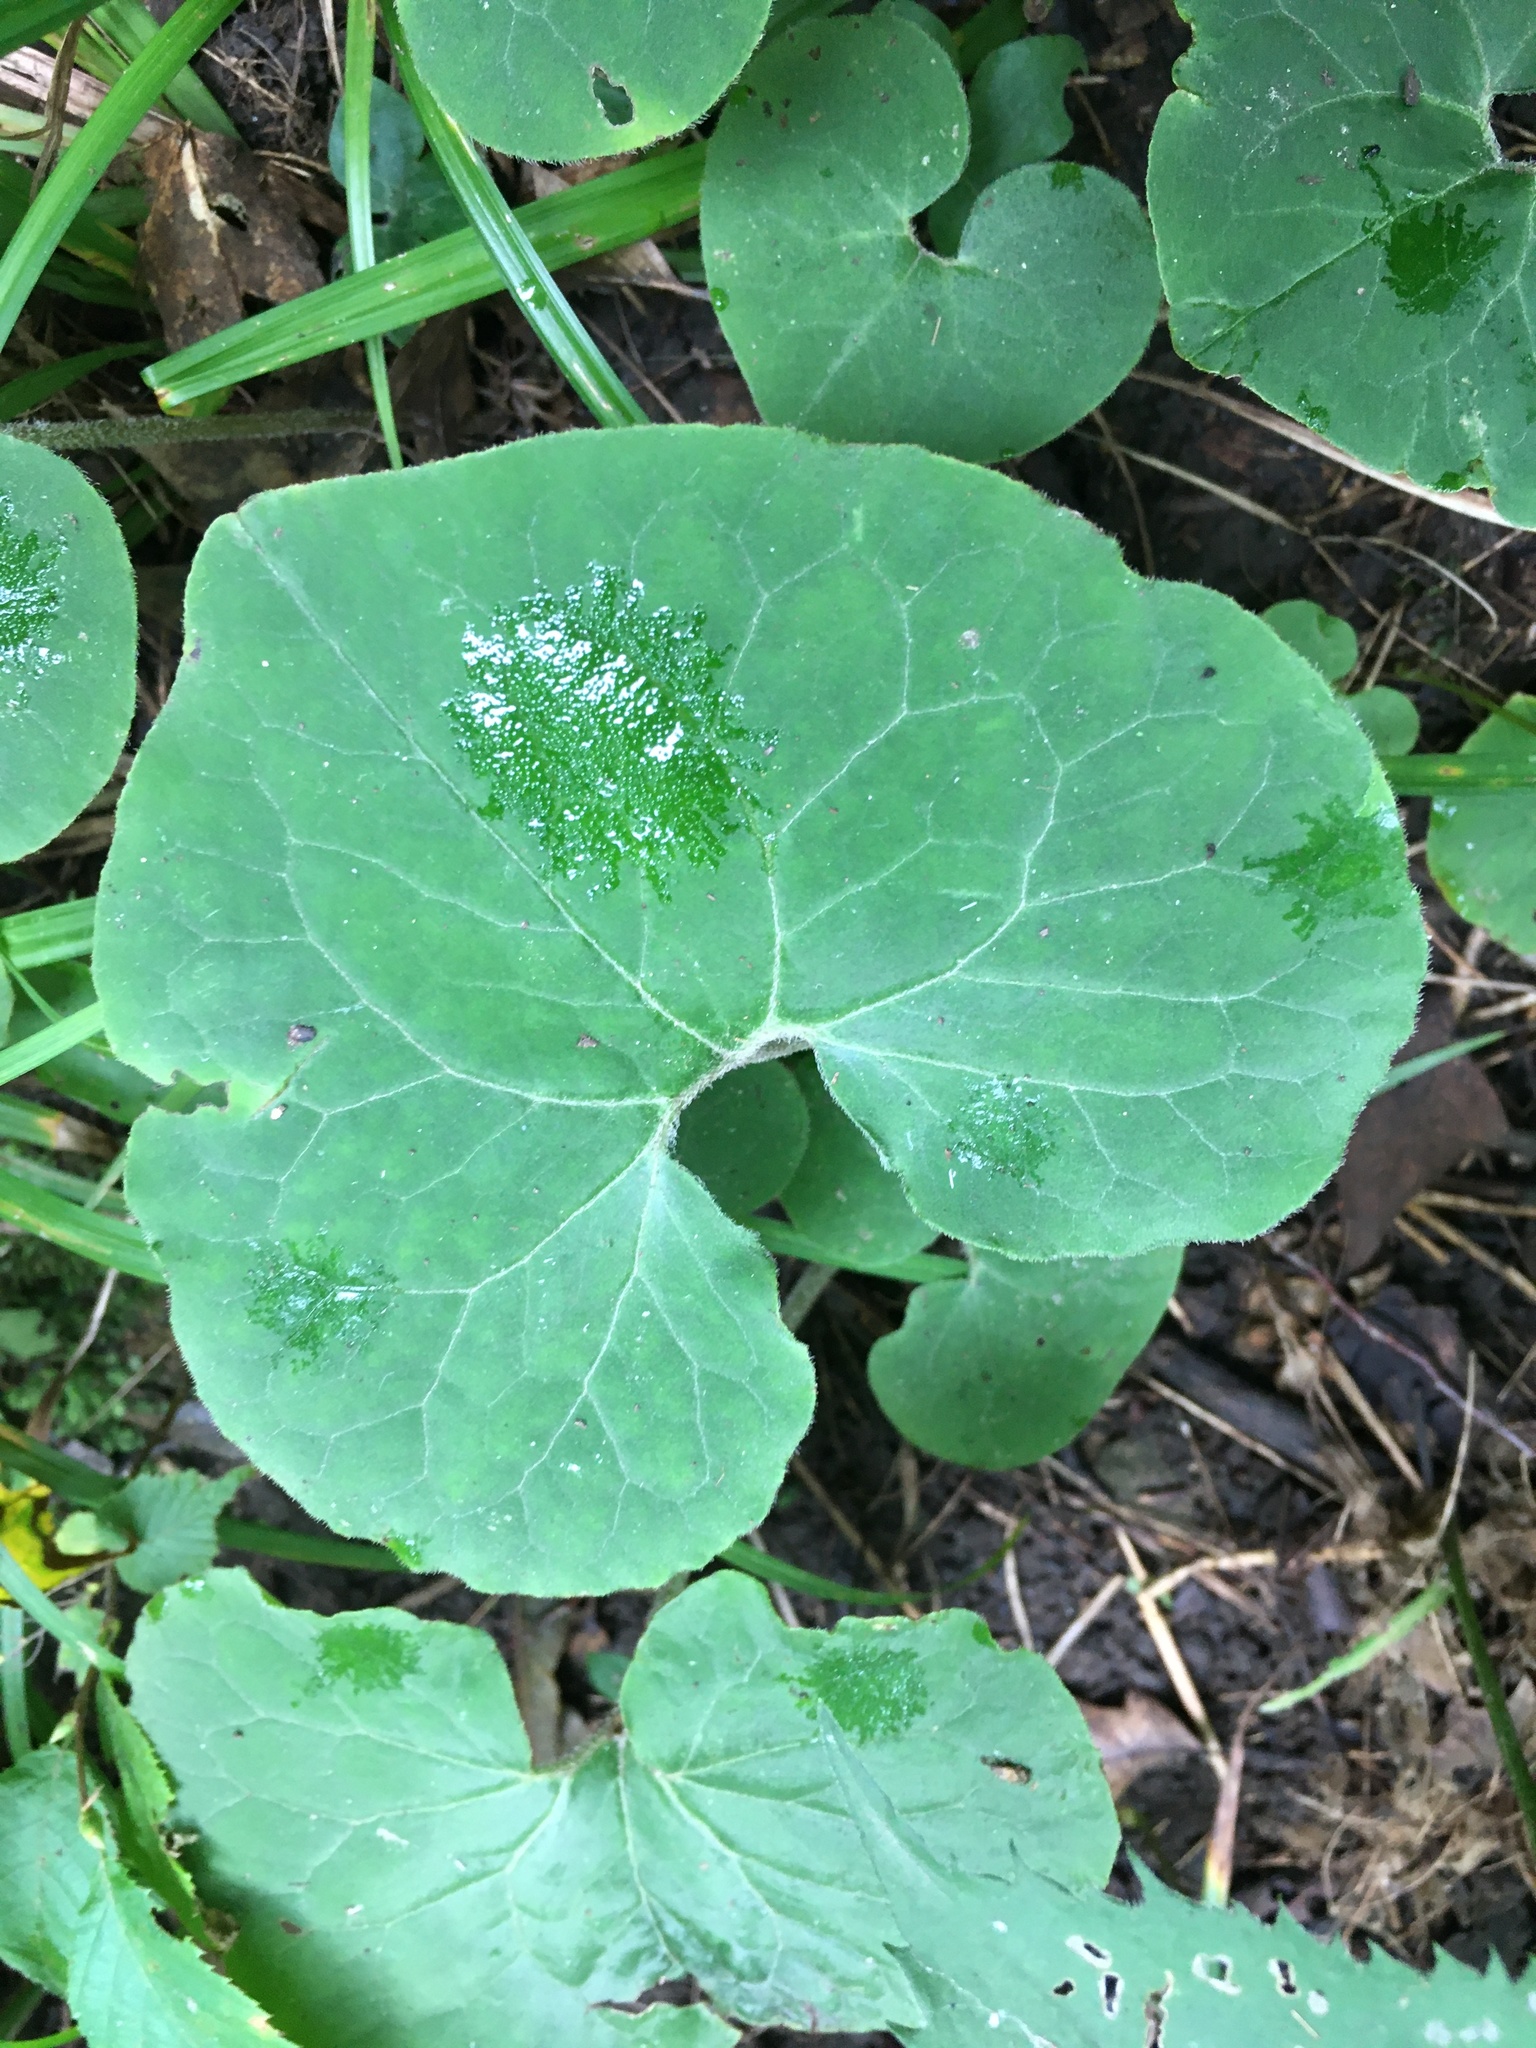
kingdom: Plantae
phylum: Tracheophyta
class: Magnoliopsida
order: Piperales
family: Aristolochiaceae
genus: Asarum
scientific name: Asarum canadense
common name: Wild ginger
